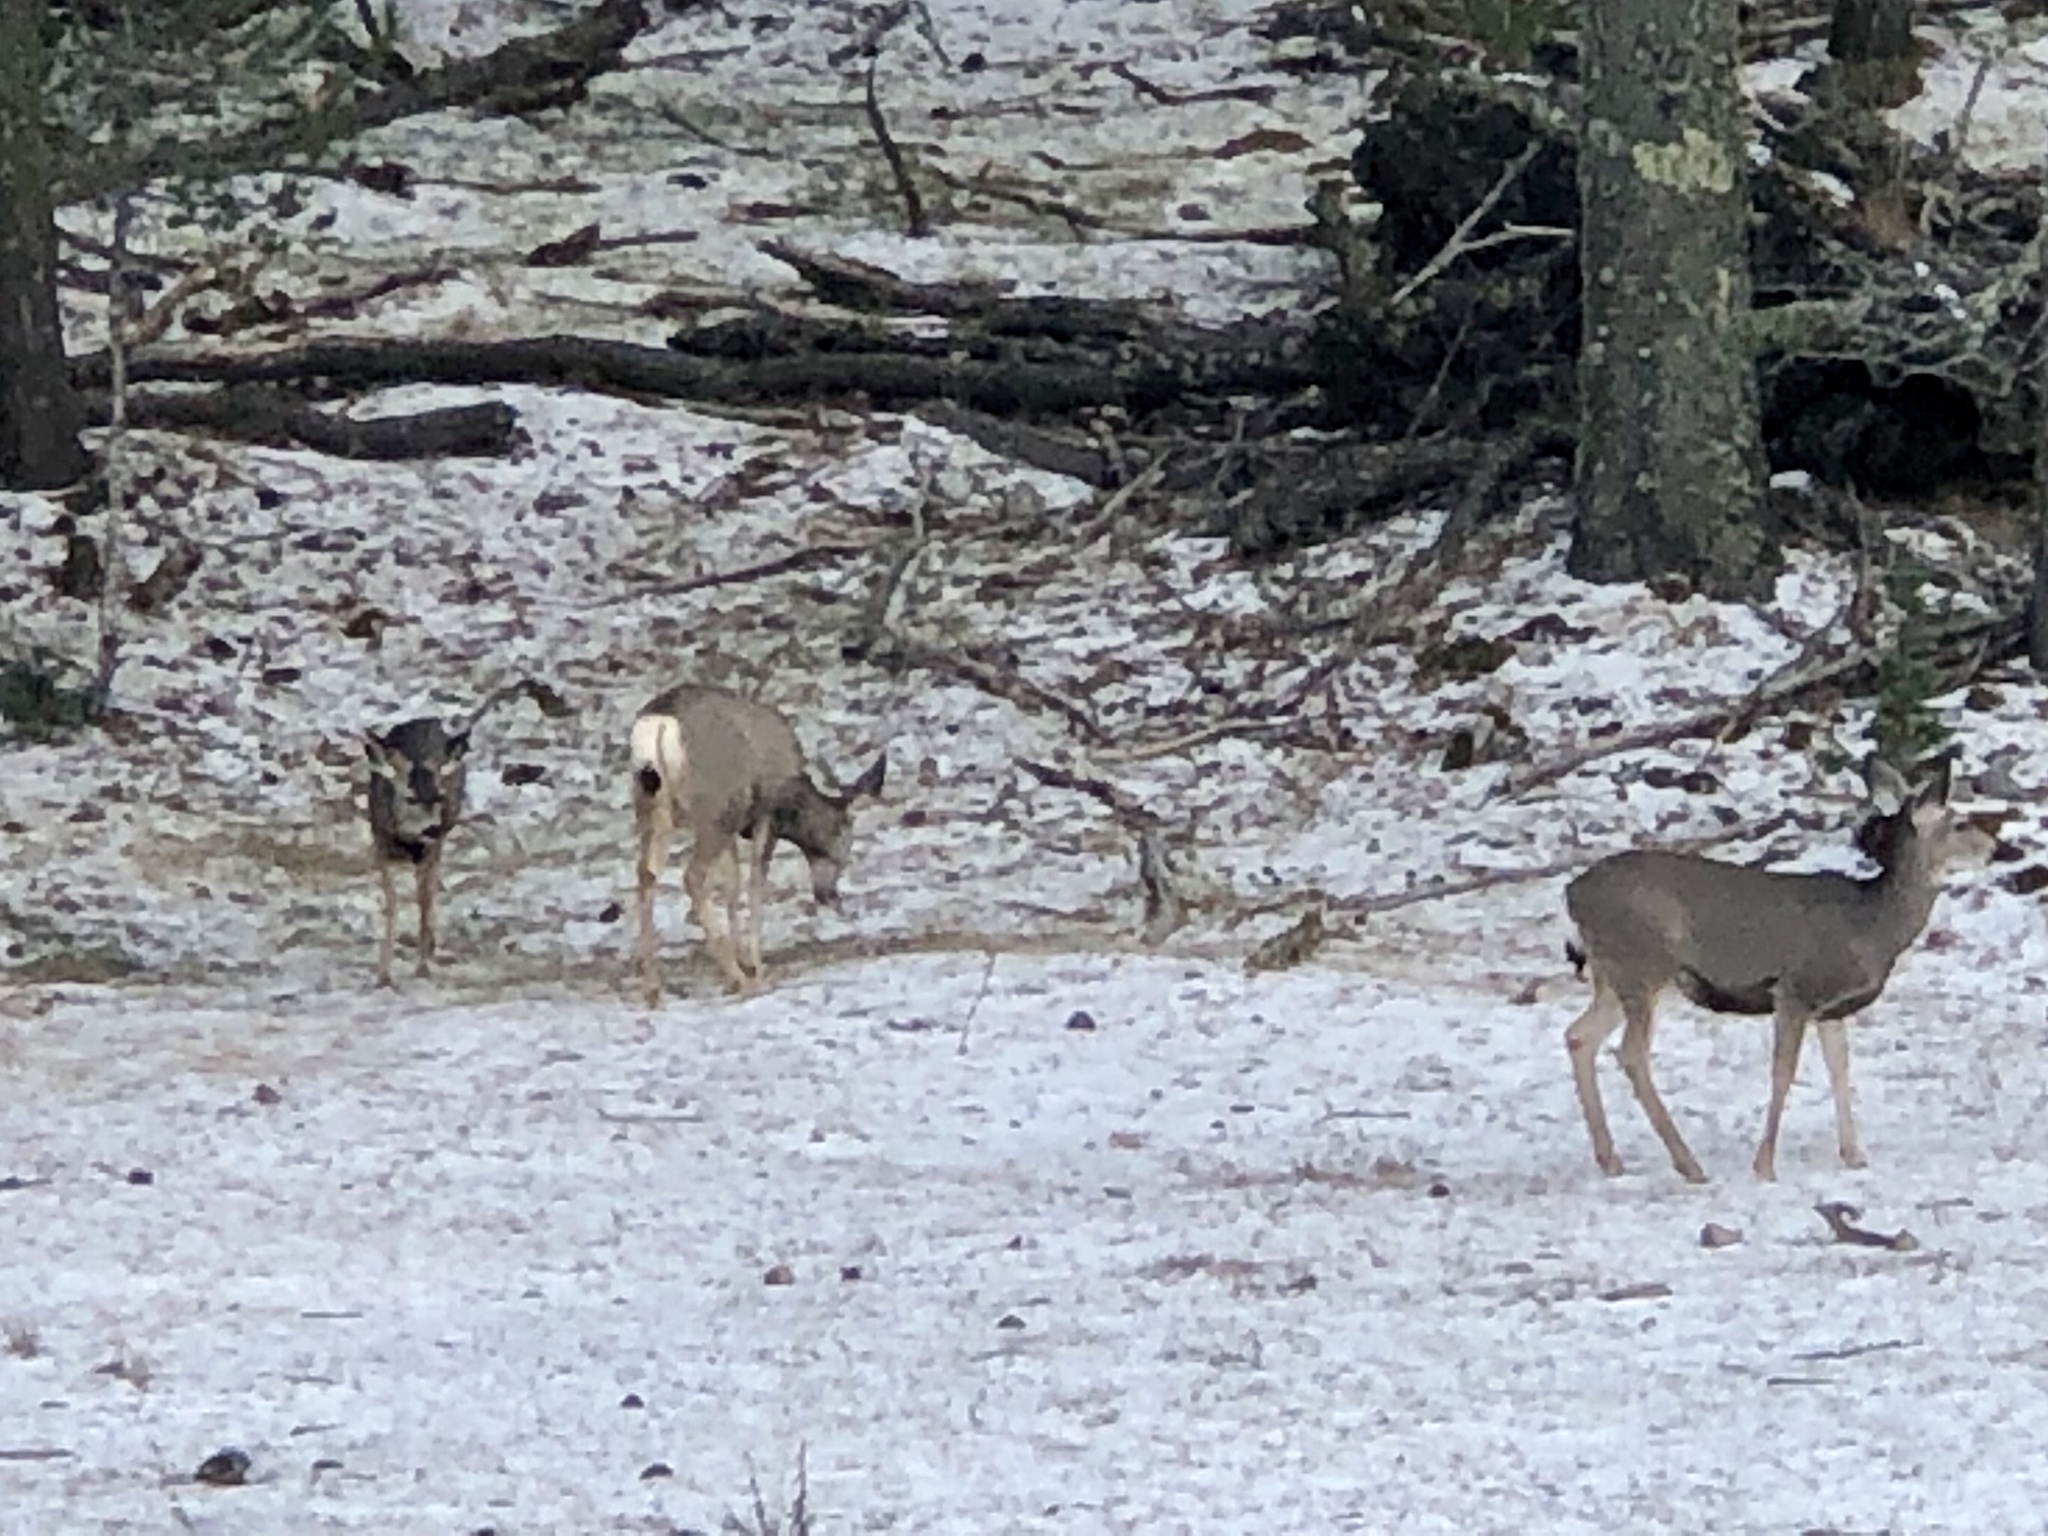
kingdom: Animalia
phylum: Chordata
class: Mammalia
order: Artiodactyla
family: Cervidae
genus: Odocoileus
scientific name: Odocoileus hemionus
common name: Mule deer
